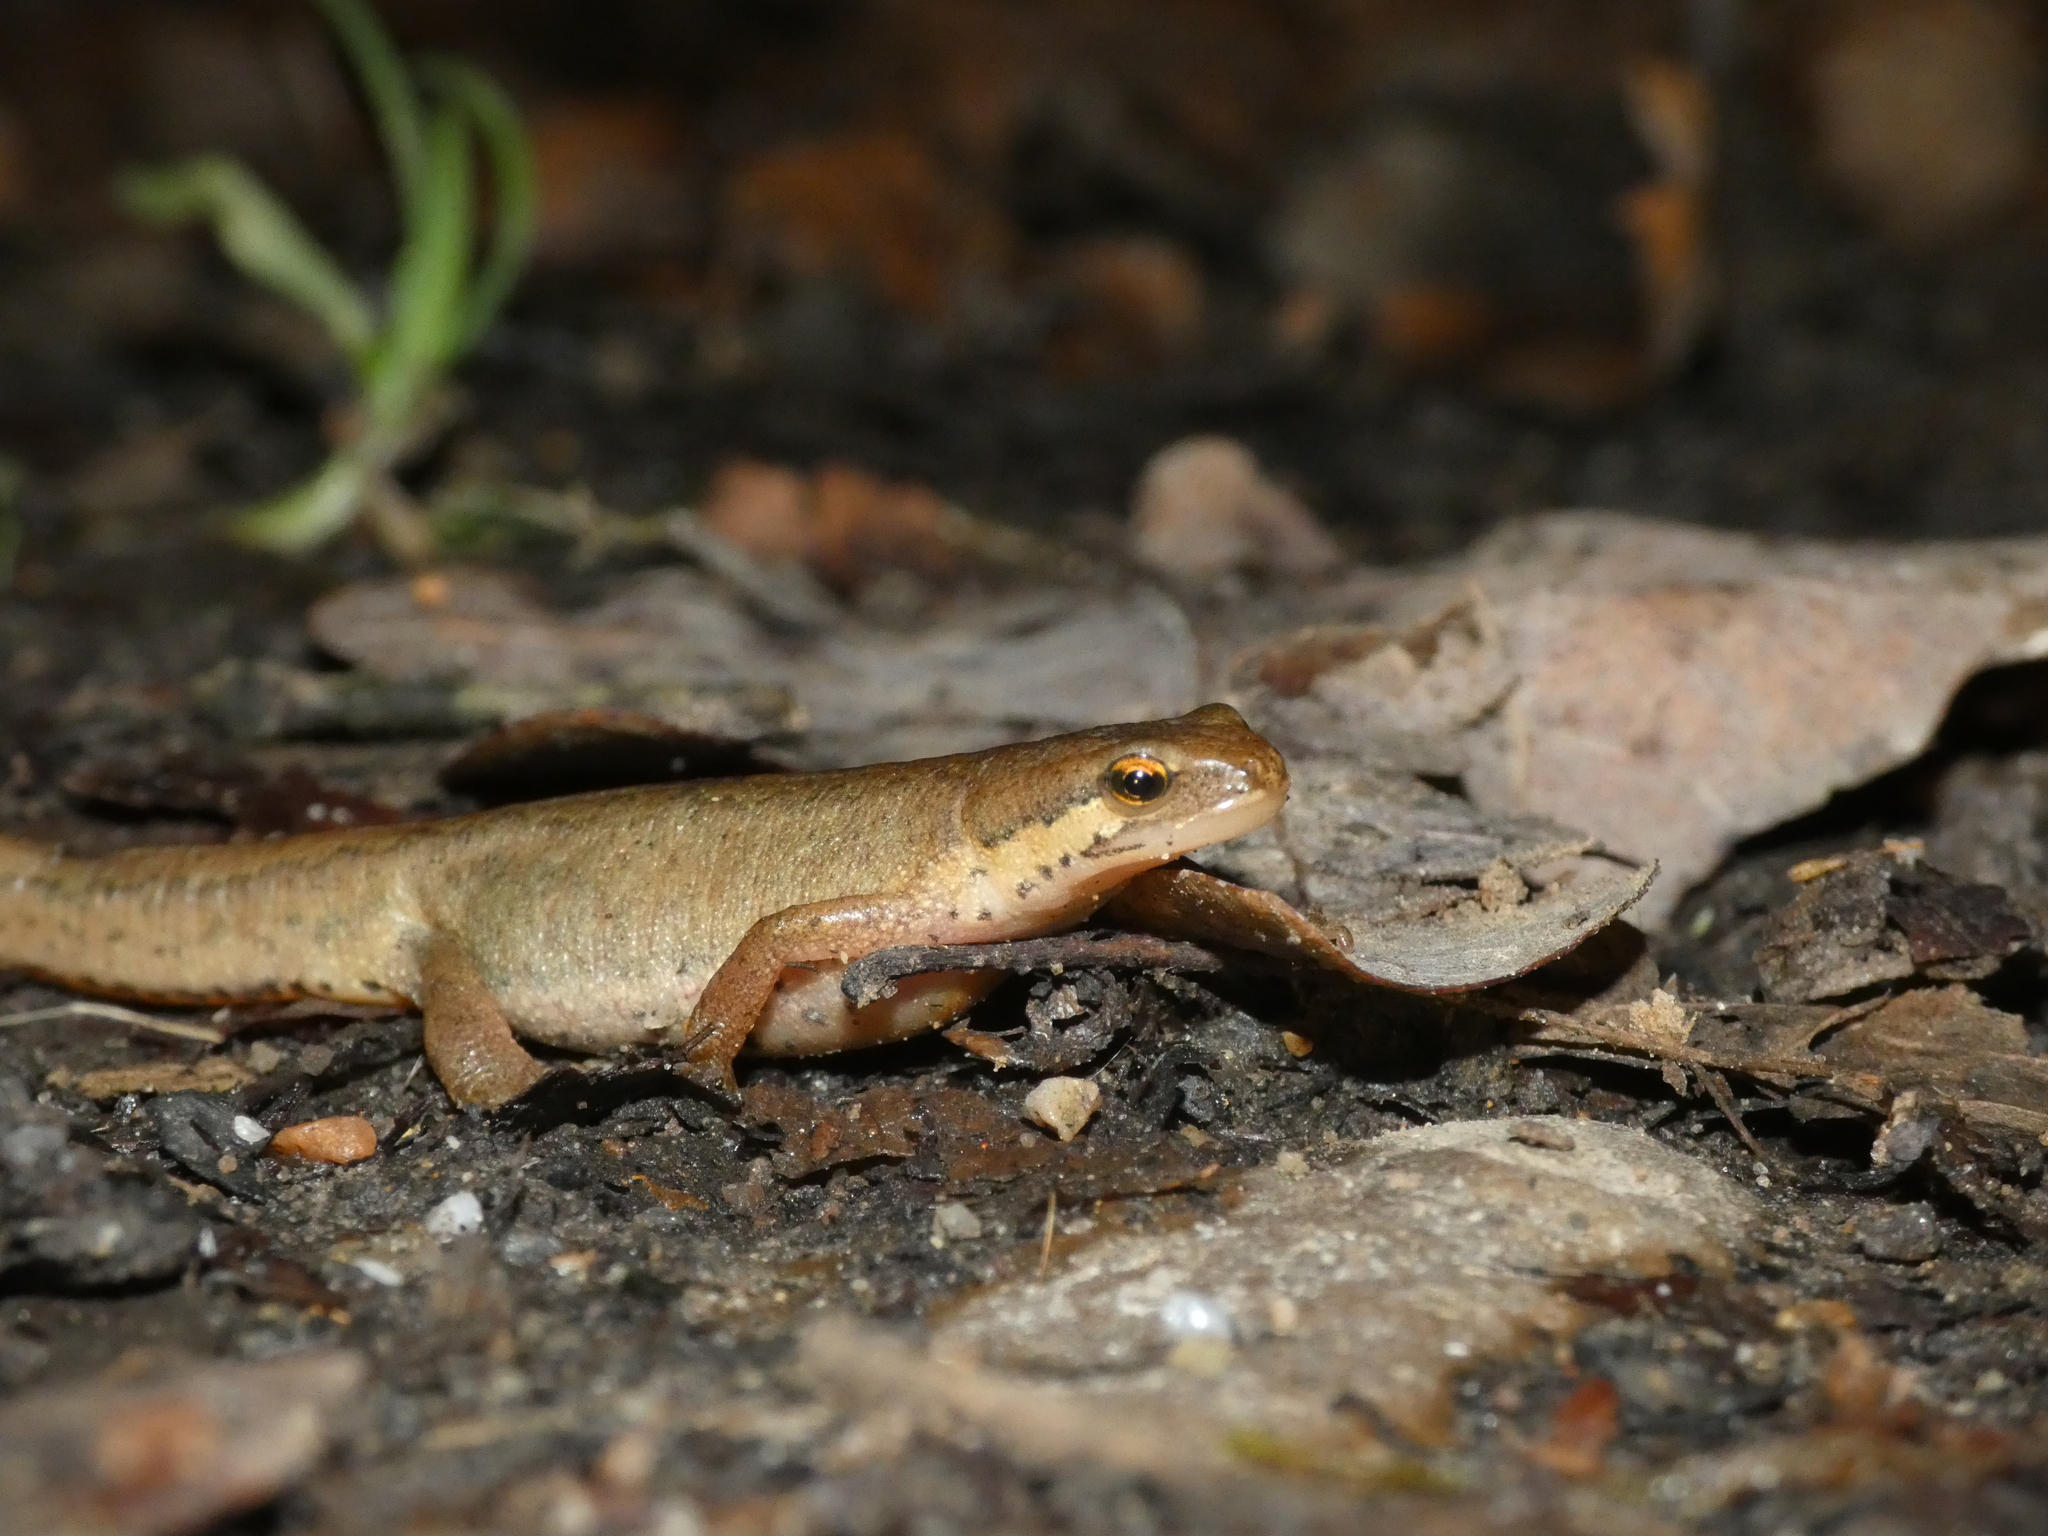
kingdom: Animalia
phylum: Chordata
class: Amphibia
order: Caudata
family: Salamandridae
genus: Lissotriton
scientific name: Lissotriton helveticus
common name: Palmate newt
